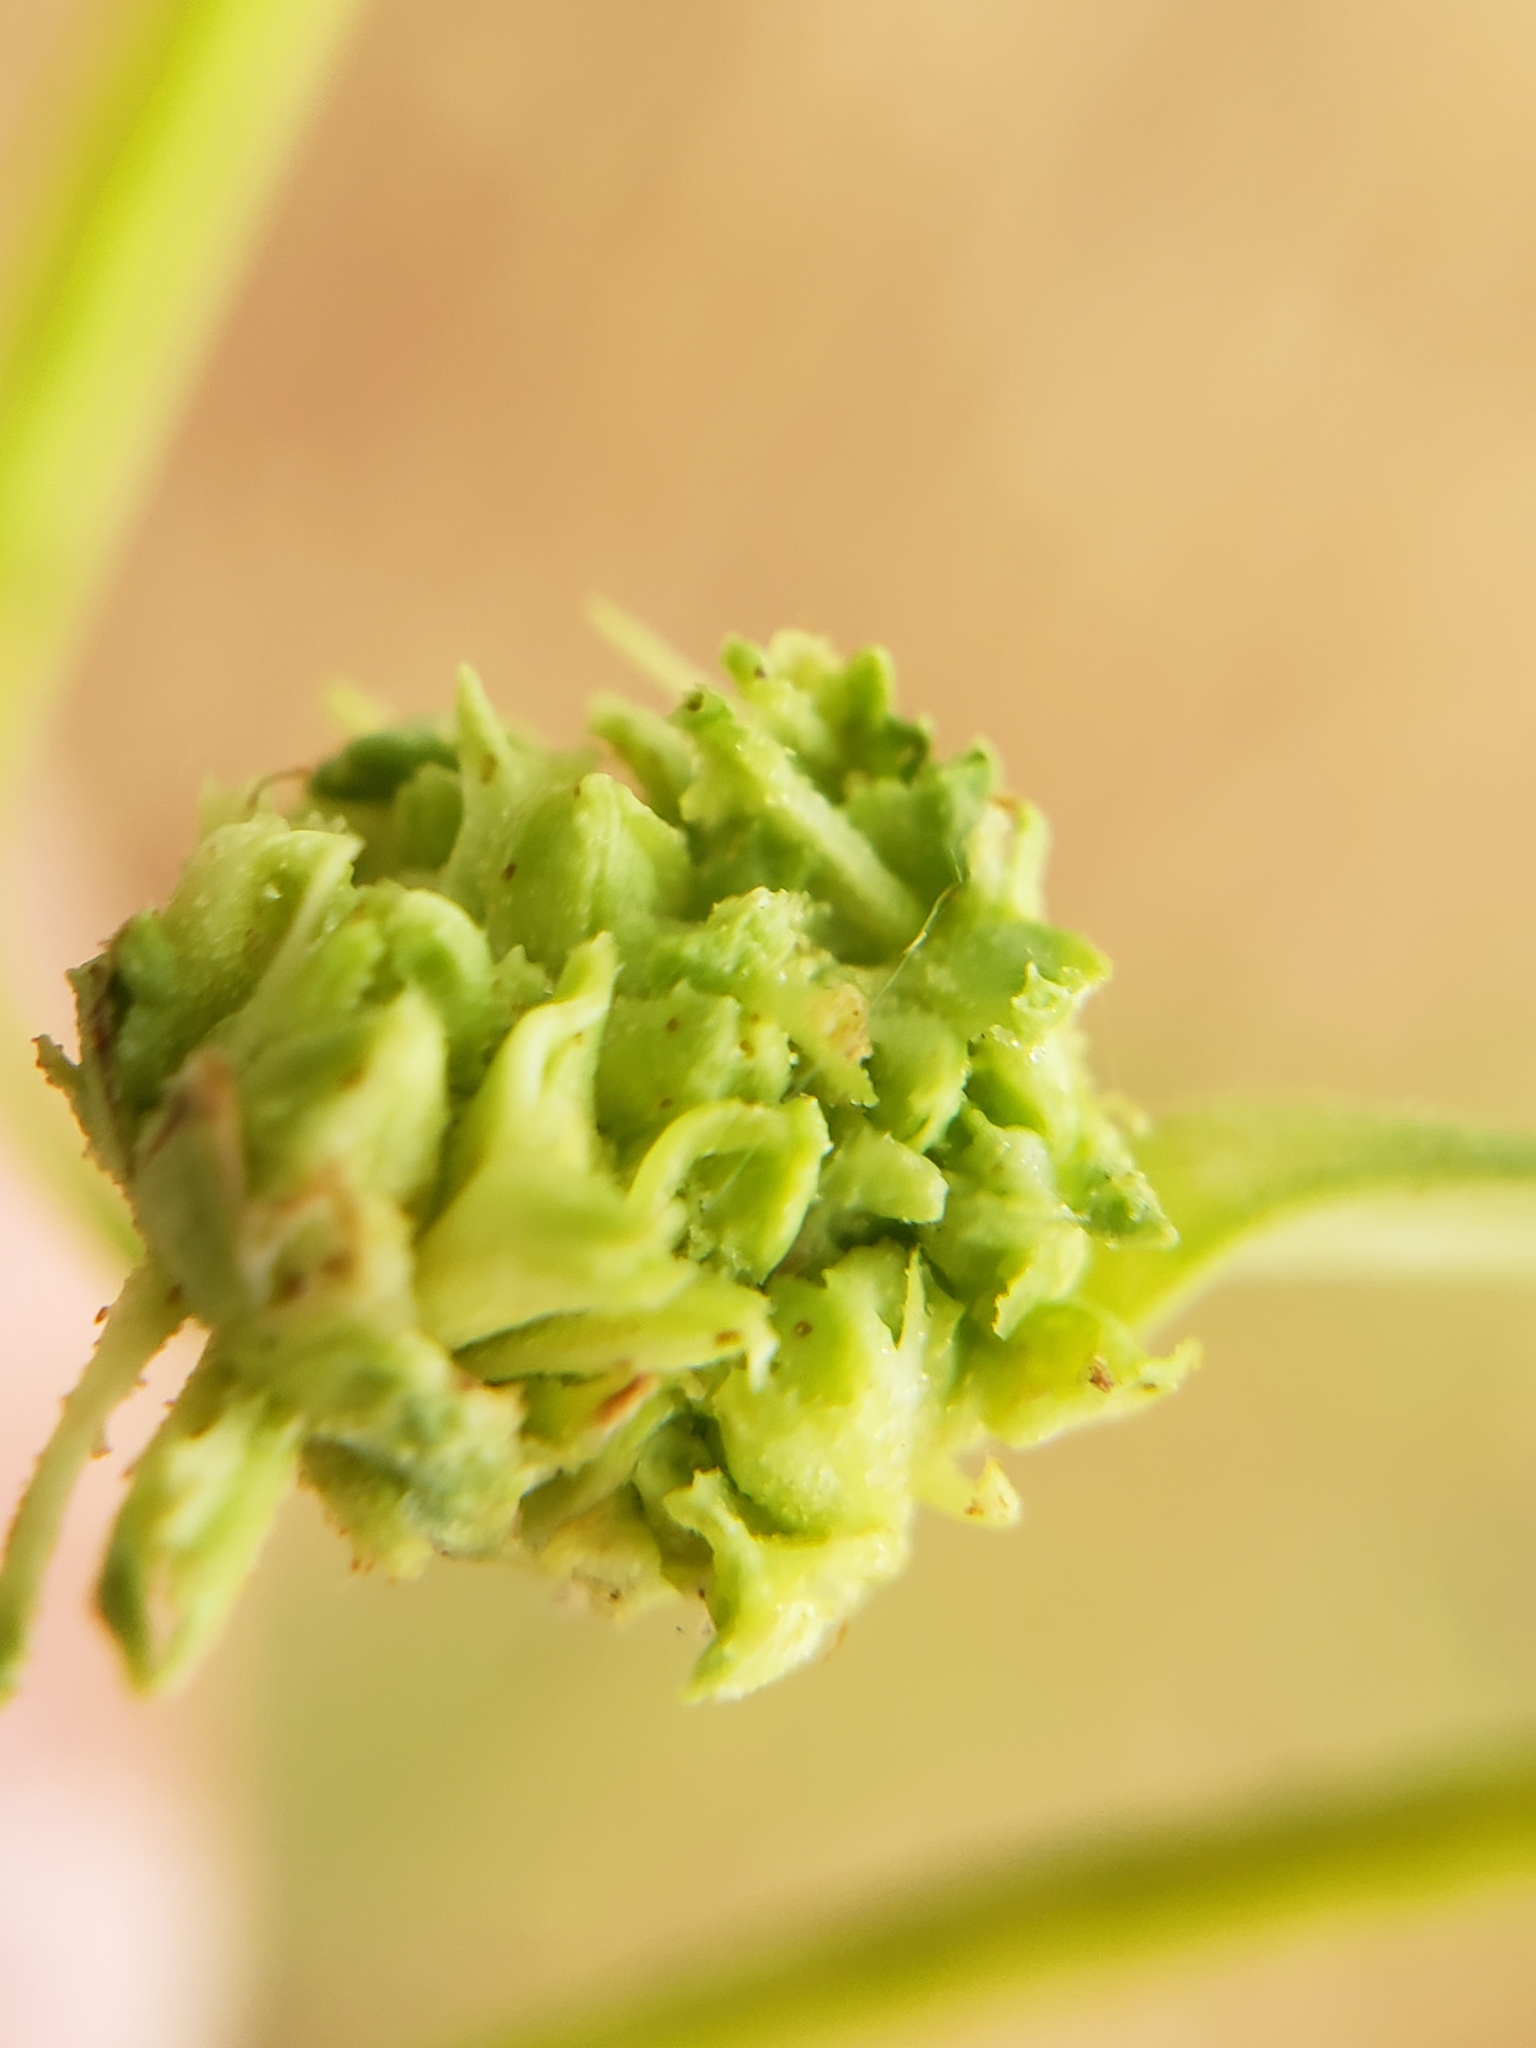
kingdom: Animalia
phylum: Arthropoda
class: Arachnida
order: Trombidiformes
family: Eriophyidae
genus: Aceria
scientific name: Aceria fraxiniflora
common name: Ash flower gall mite
